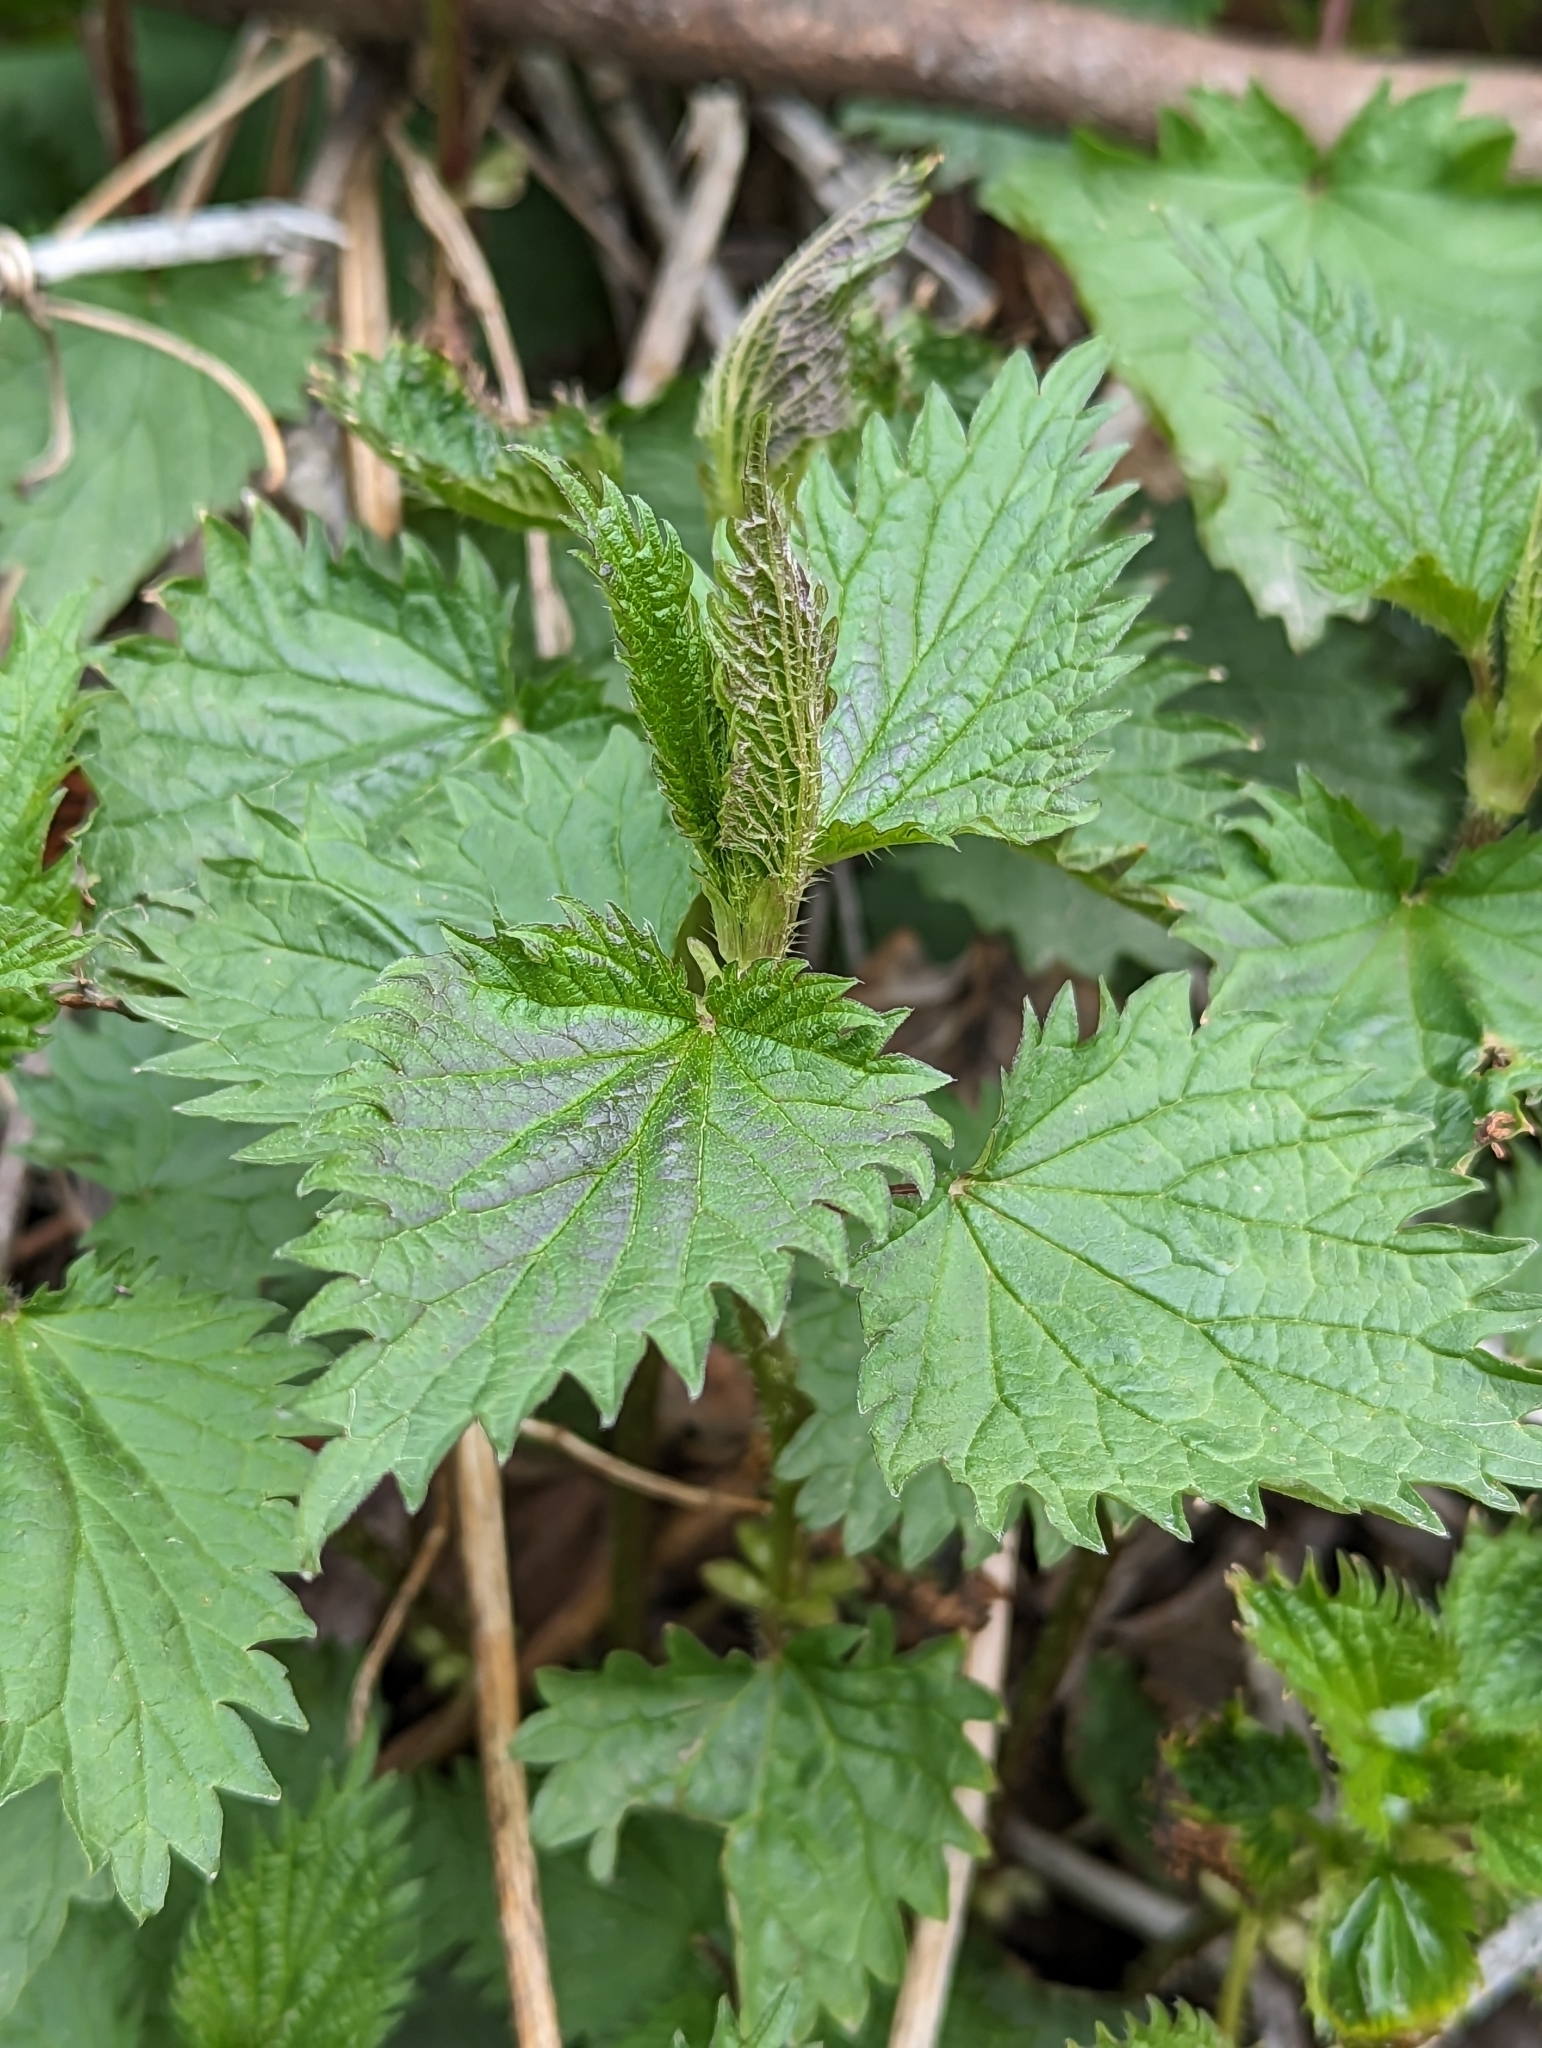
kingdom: Plantae
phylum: Tracheophyta
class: Magnoliopsida
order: Rosales
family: Urticaceae
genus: Urtica
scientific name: Urtica gracilis
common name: Slender stinging nettle
